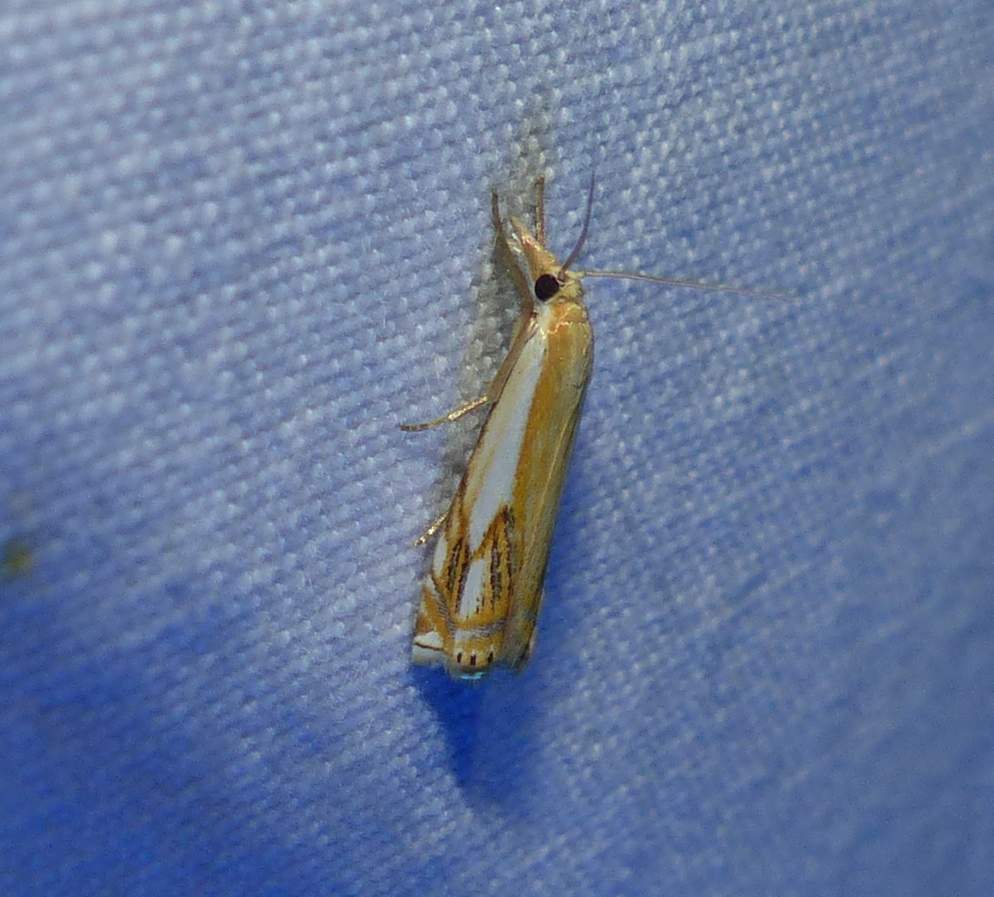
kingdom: Animalia
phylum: Arthropoda
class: Insecta
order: Lepidoptera
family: Crambidae
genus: Crambus
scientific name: Crambus agitatellus
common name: Double-banded grass-veneer
